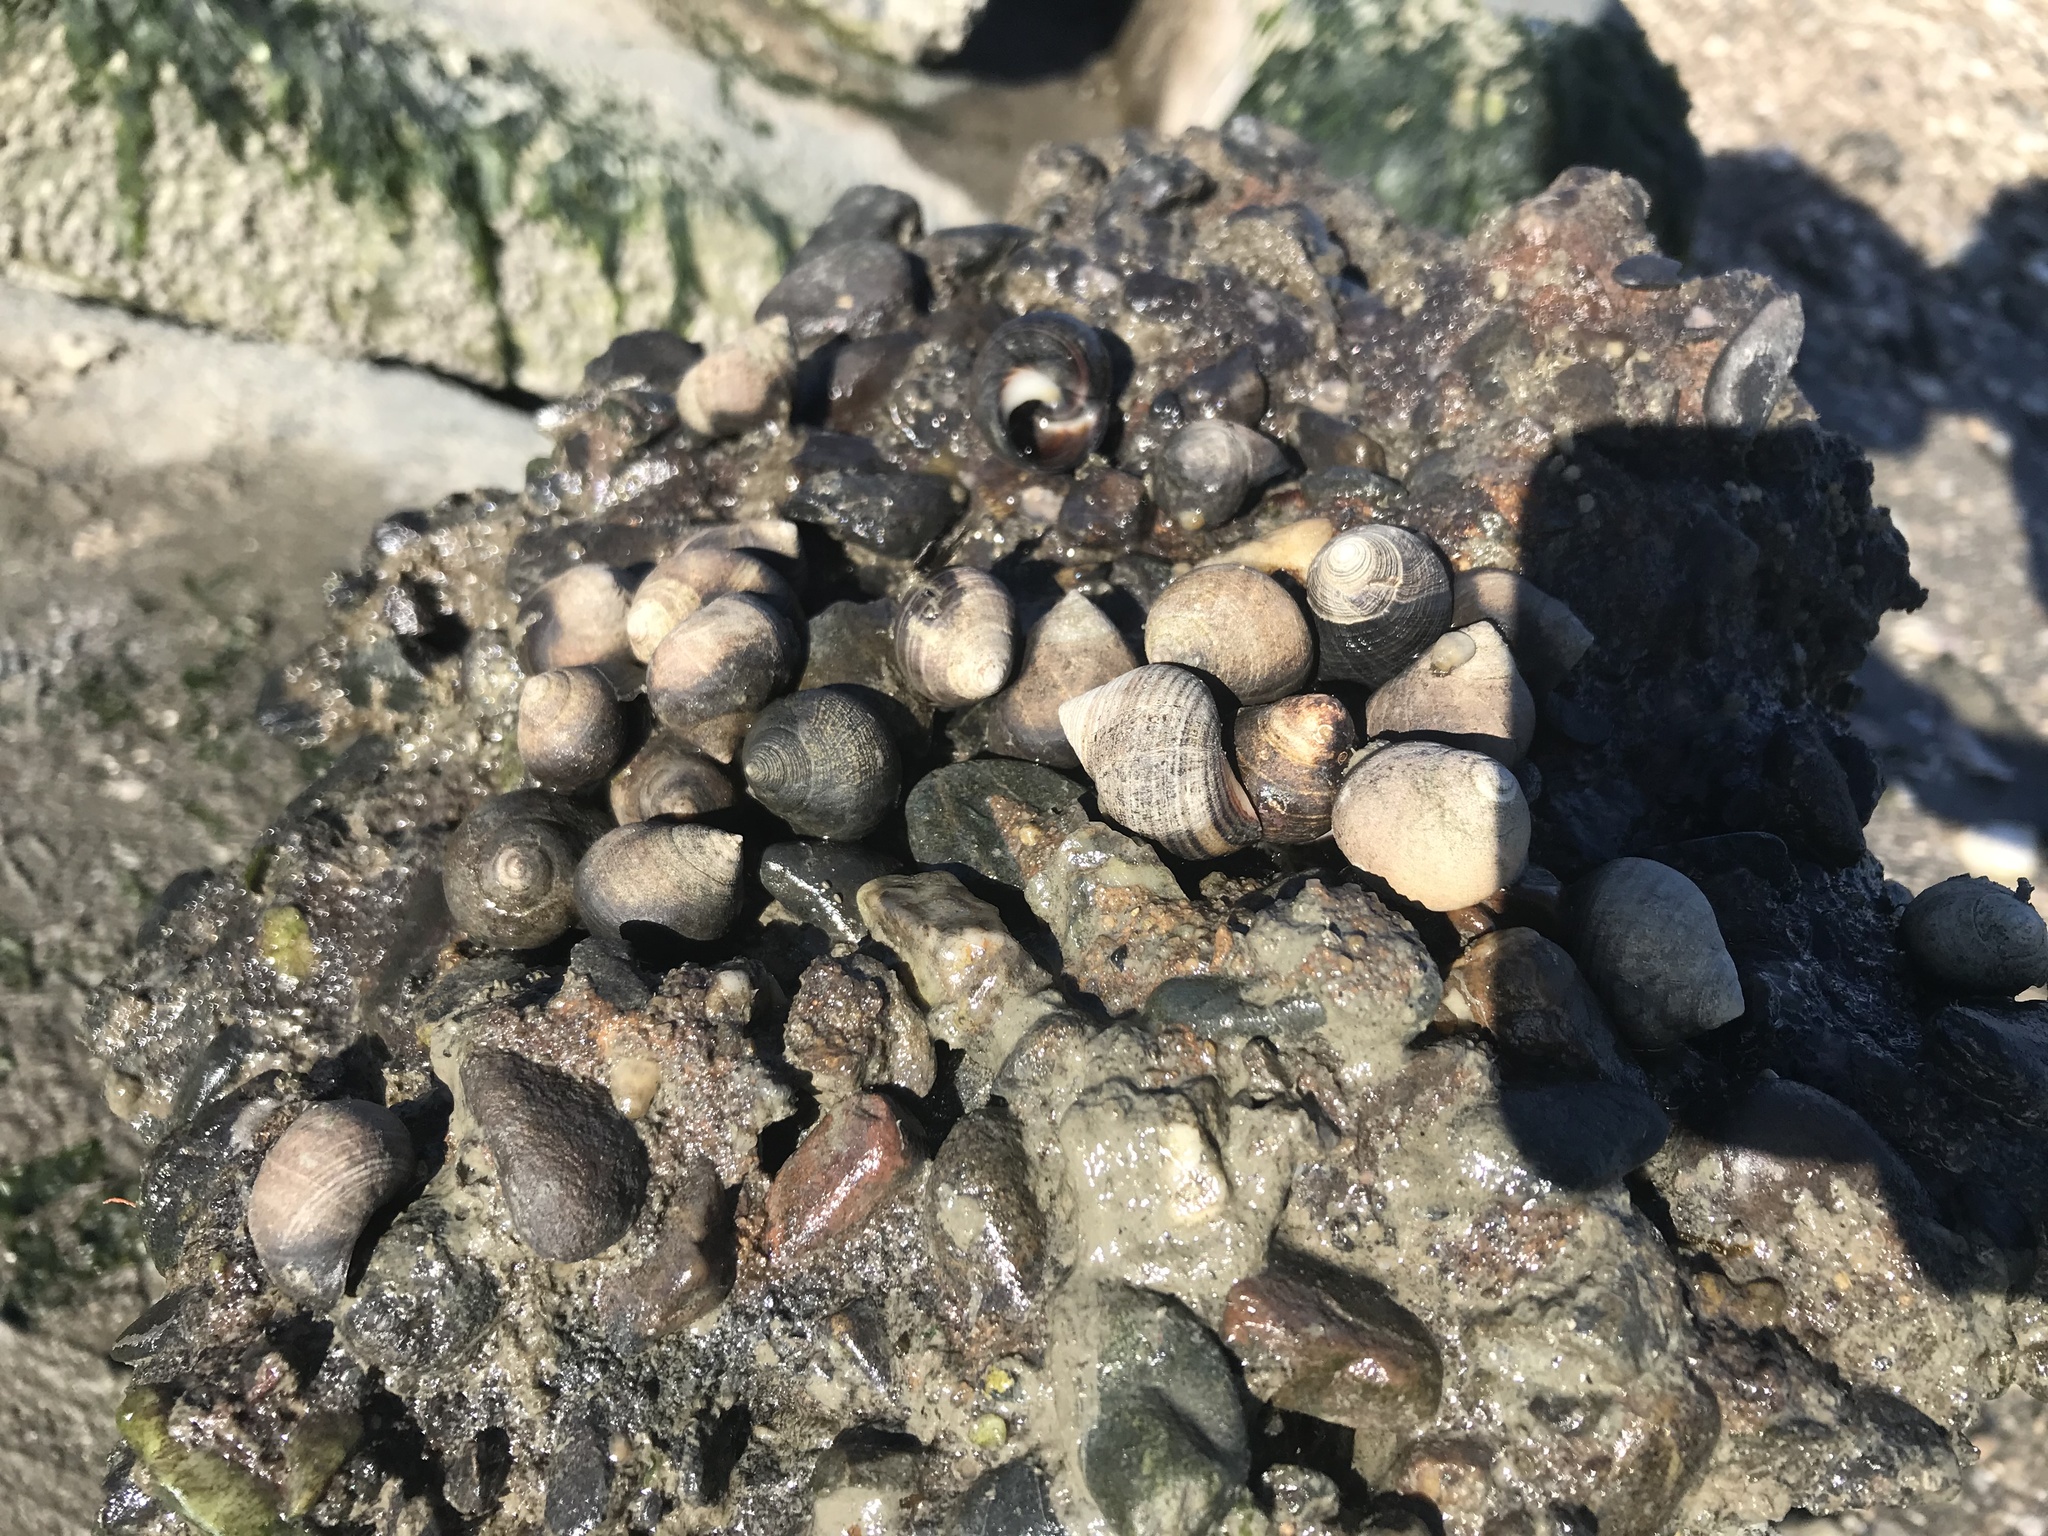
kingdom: Animalia
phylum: Mollusca
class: Gastropoda
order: Littorinimorpha
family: Littorinidae
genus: Littorina
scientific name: Littorina littorea
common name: Common periwinkle
